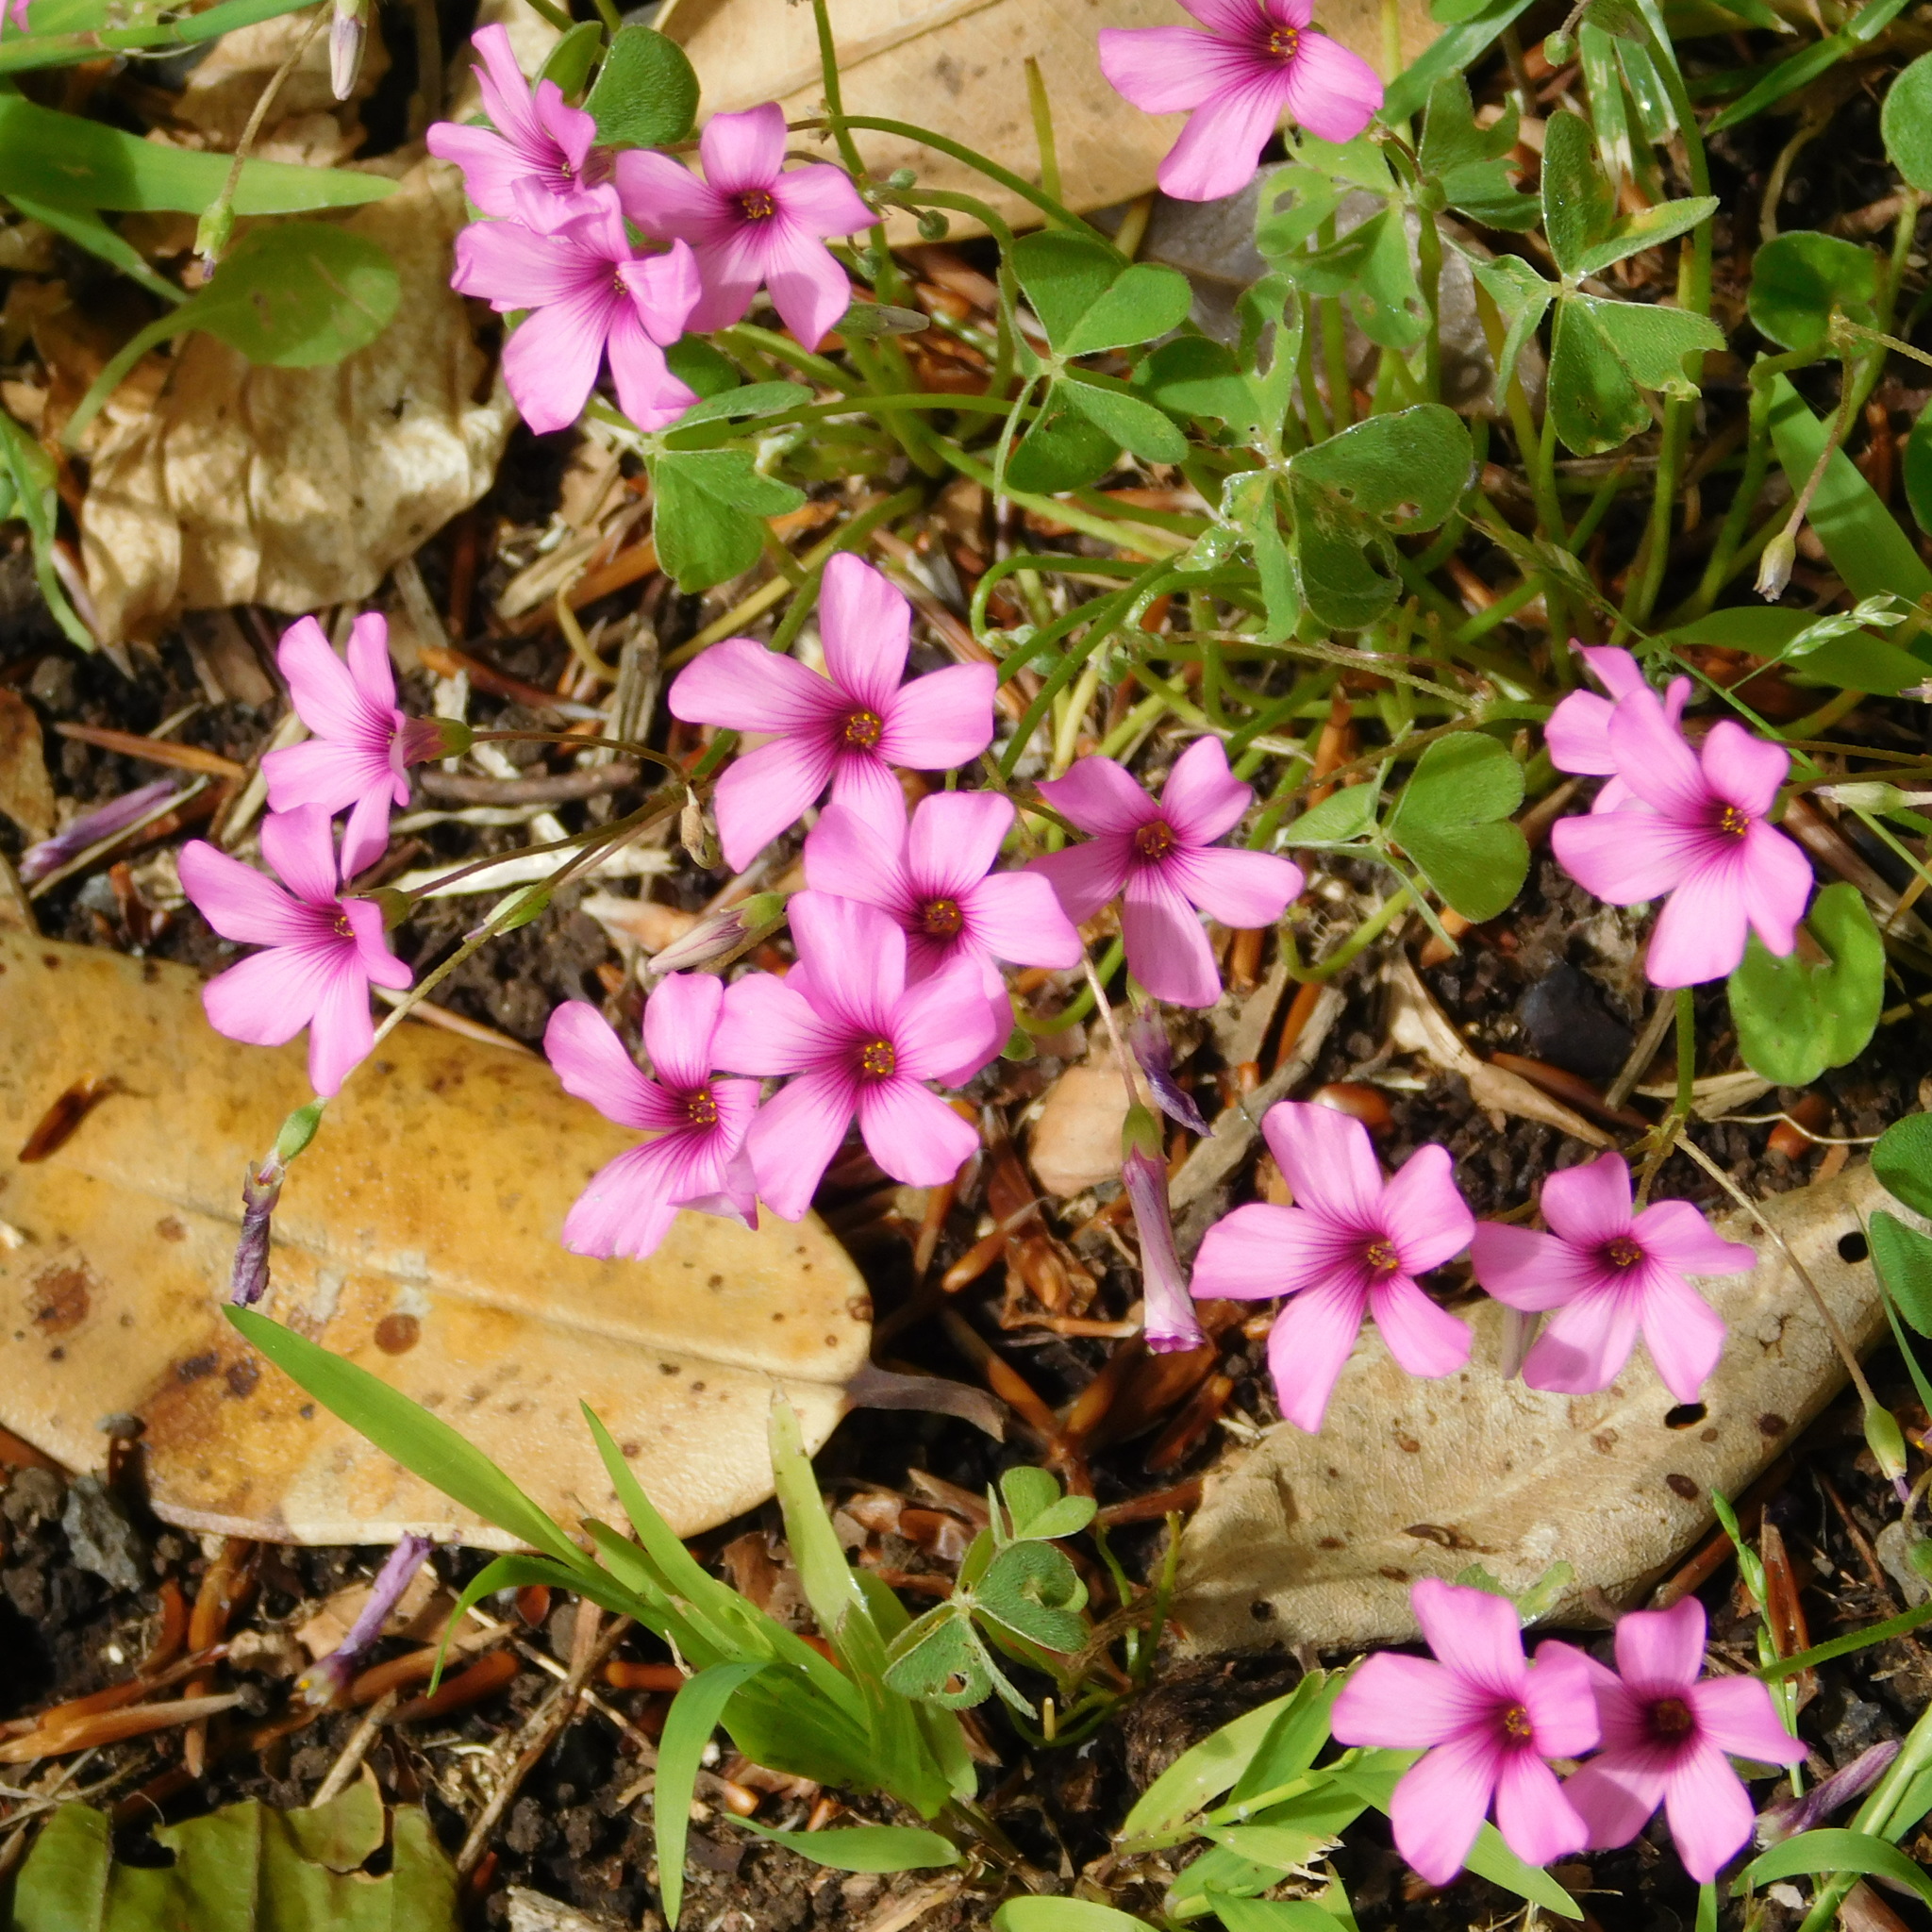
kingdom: Plantae
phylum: Tracheophyta
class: Magnoliopsida
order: Oxalidales
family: Oxalidaceae
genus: Oxalis
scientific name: Oxalis articulata
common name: Pink-sorrel
